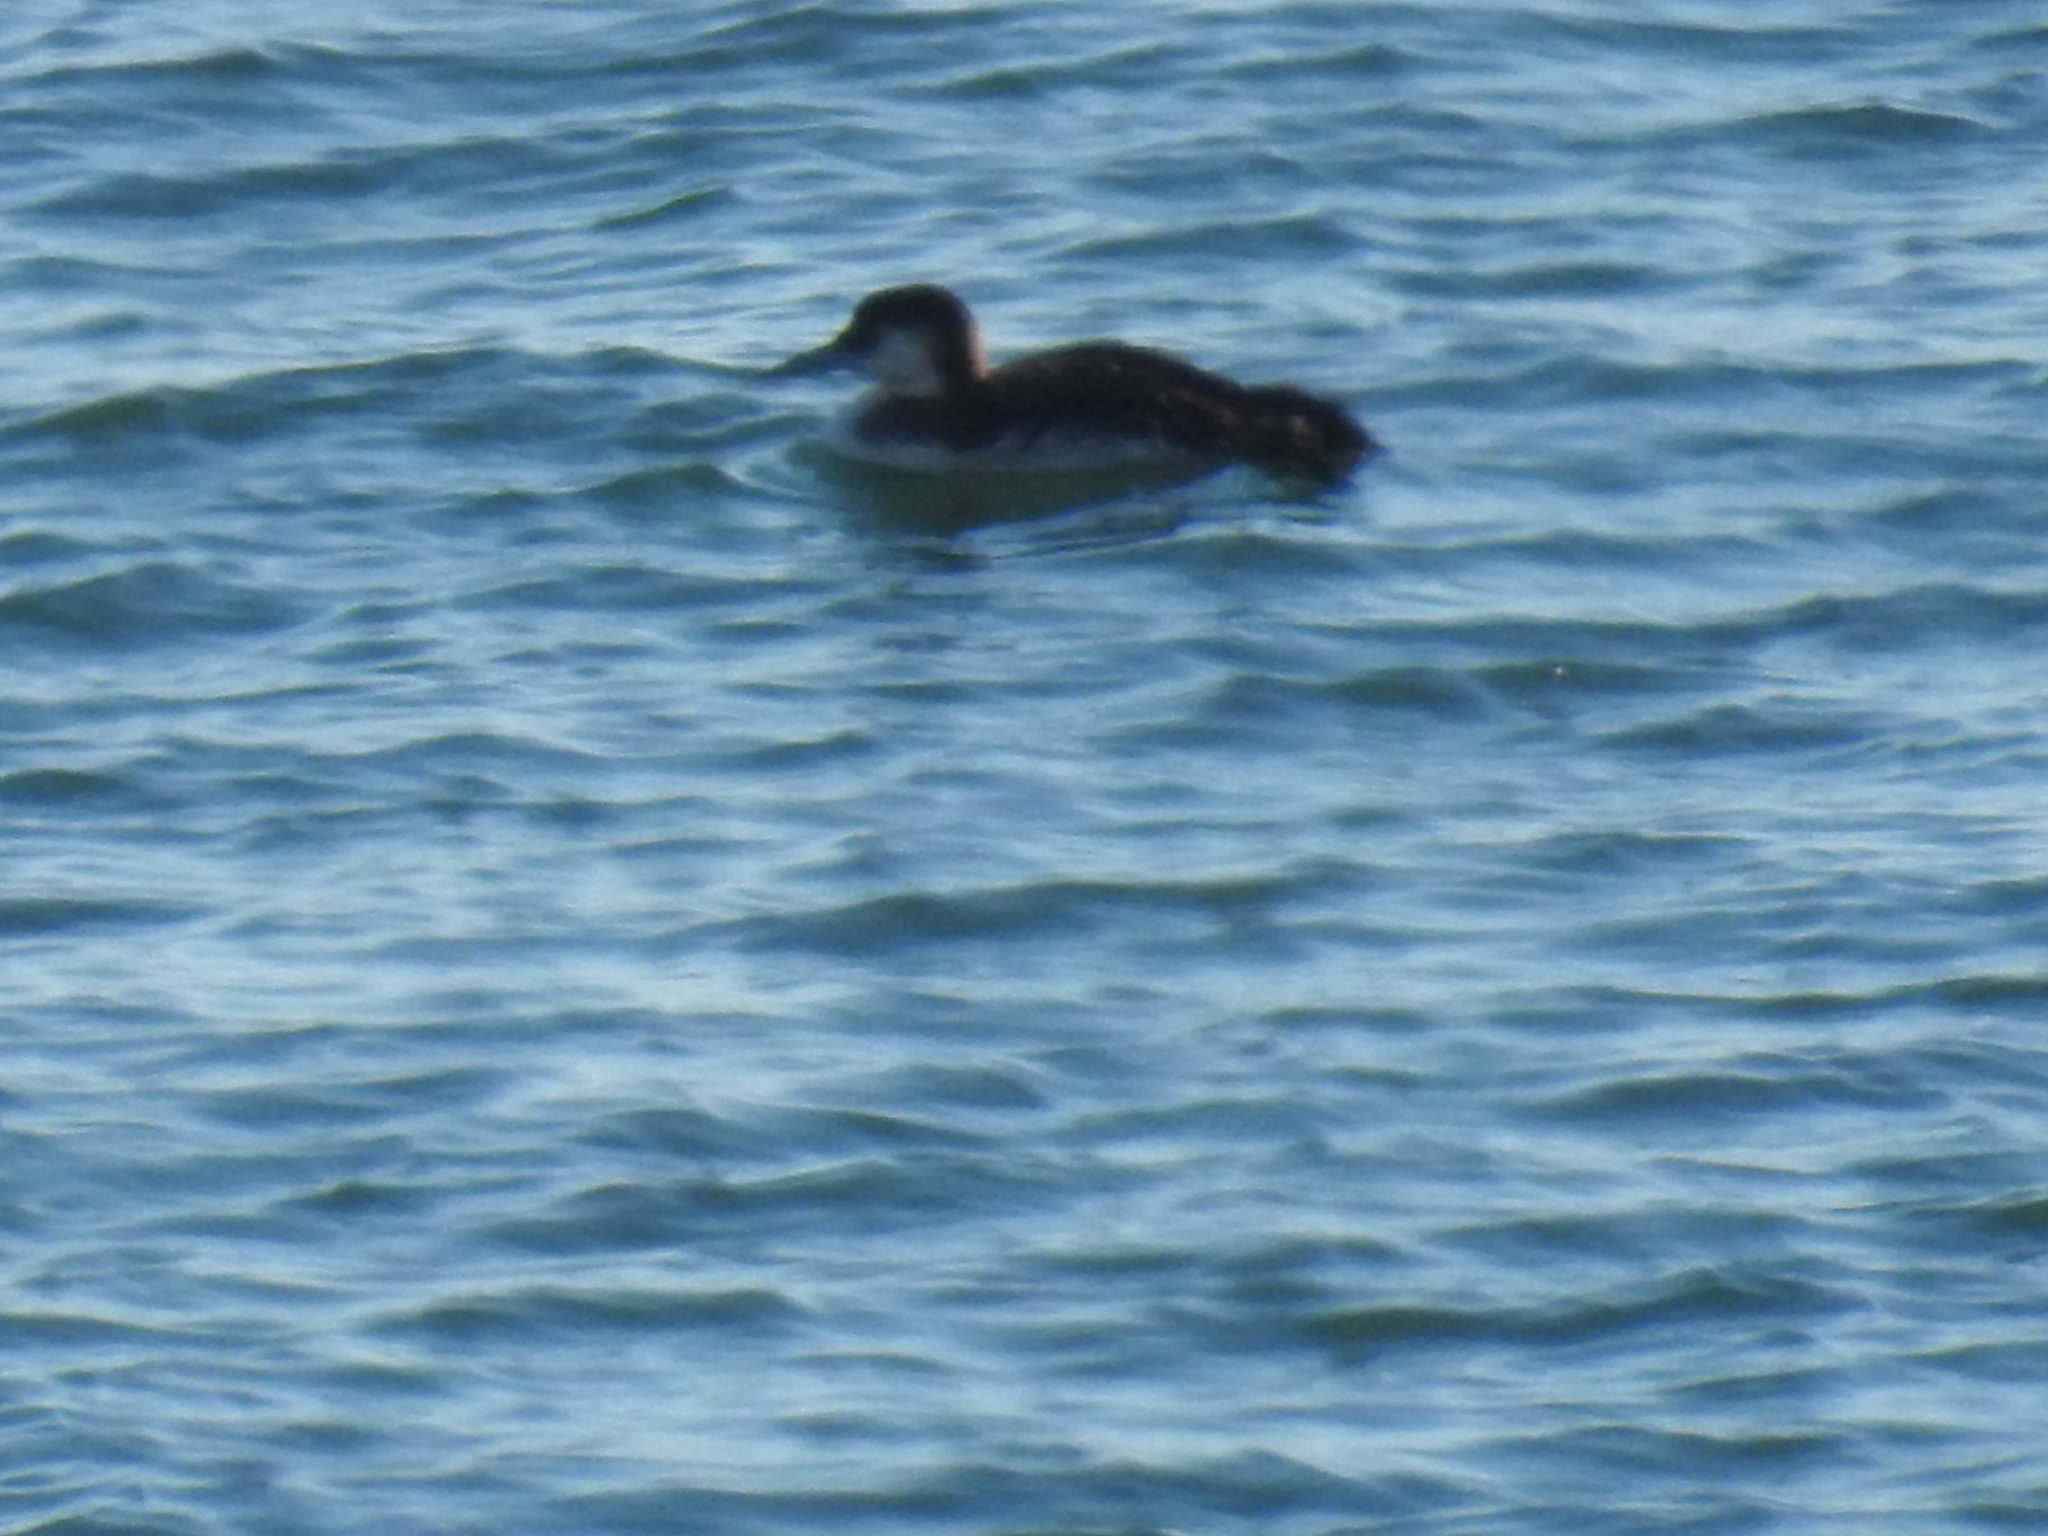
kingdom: Animalia
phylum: Chordata
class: Aves
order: Gaviiformes
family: Gaviidae
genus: Gavia
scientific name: Gavia immer
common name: Common loon
